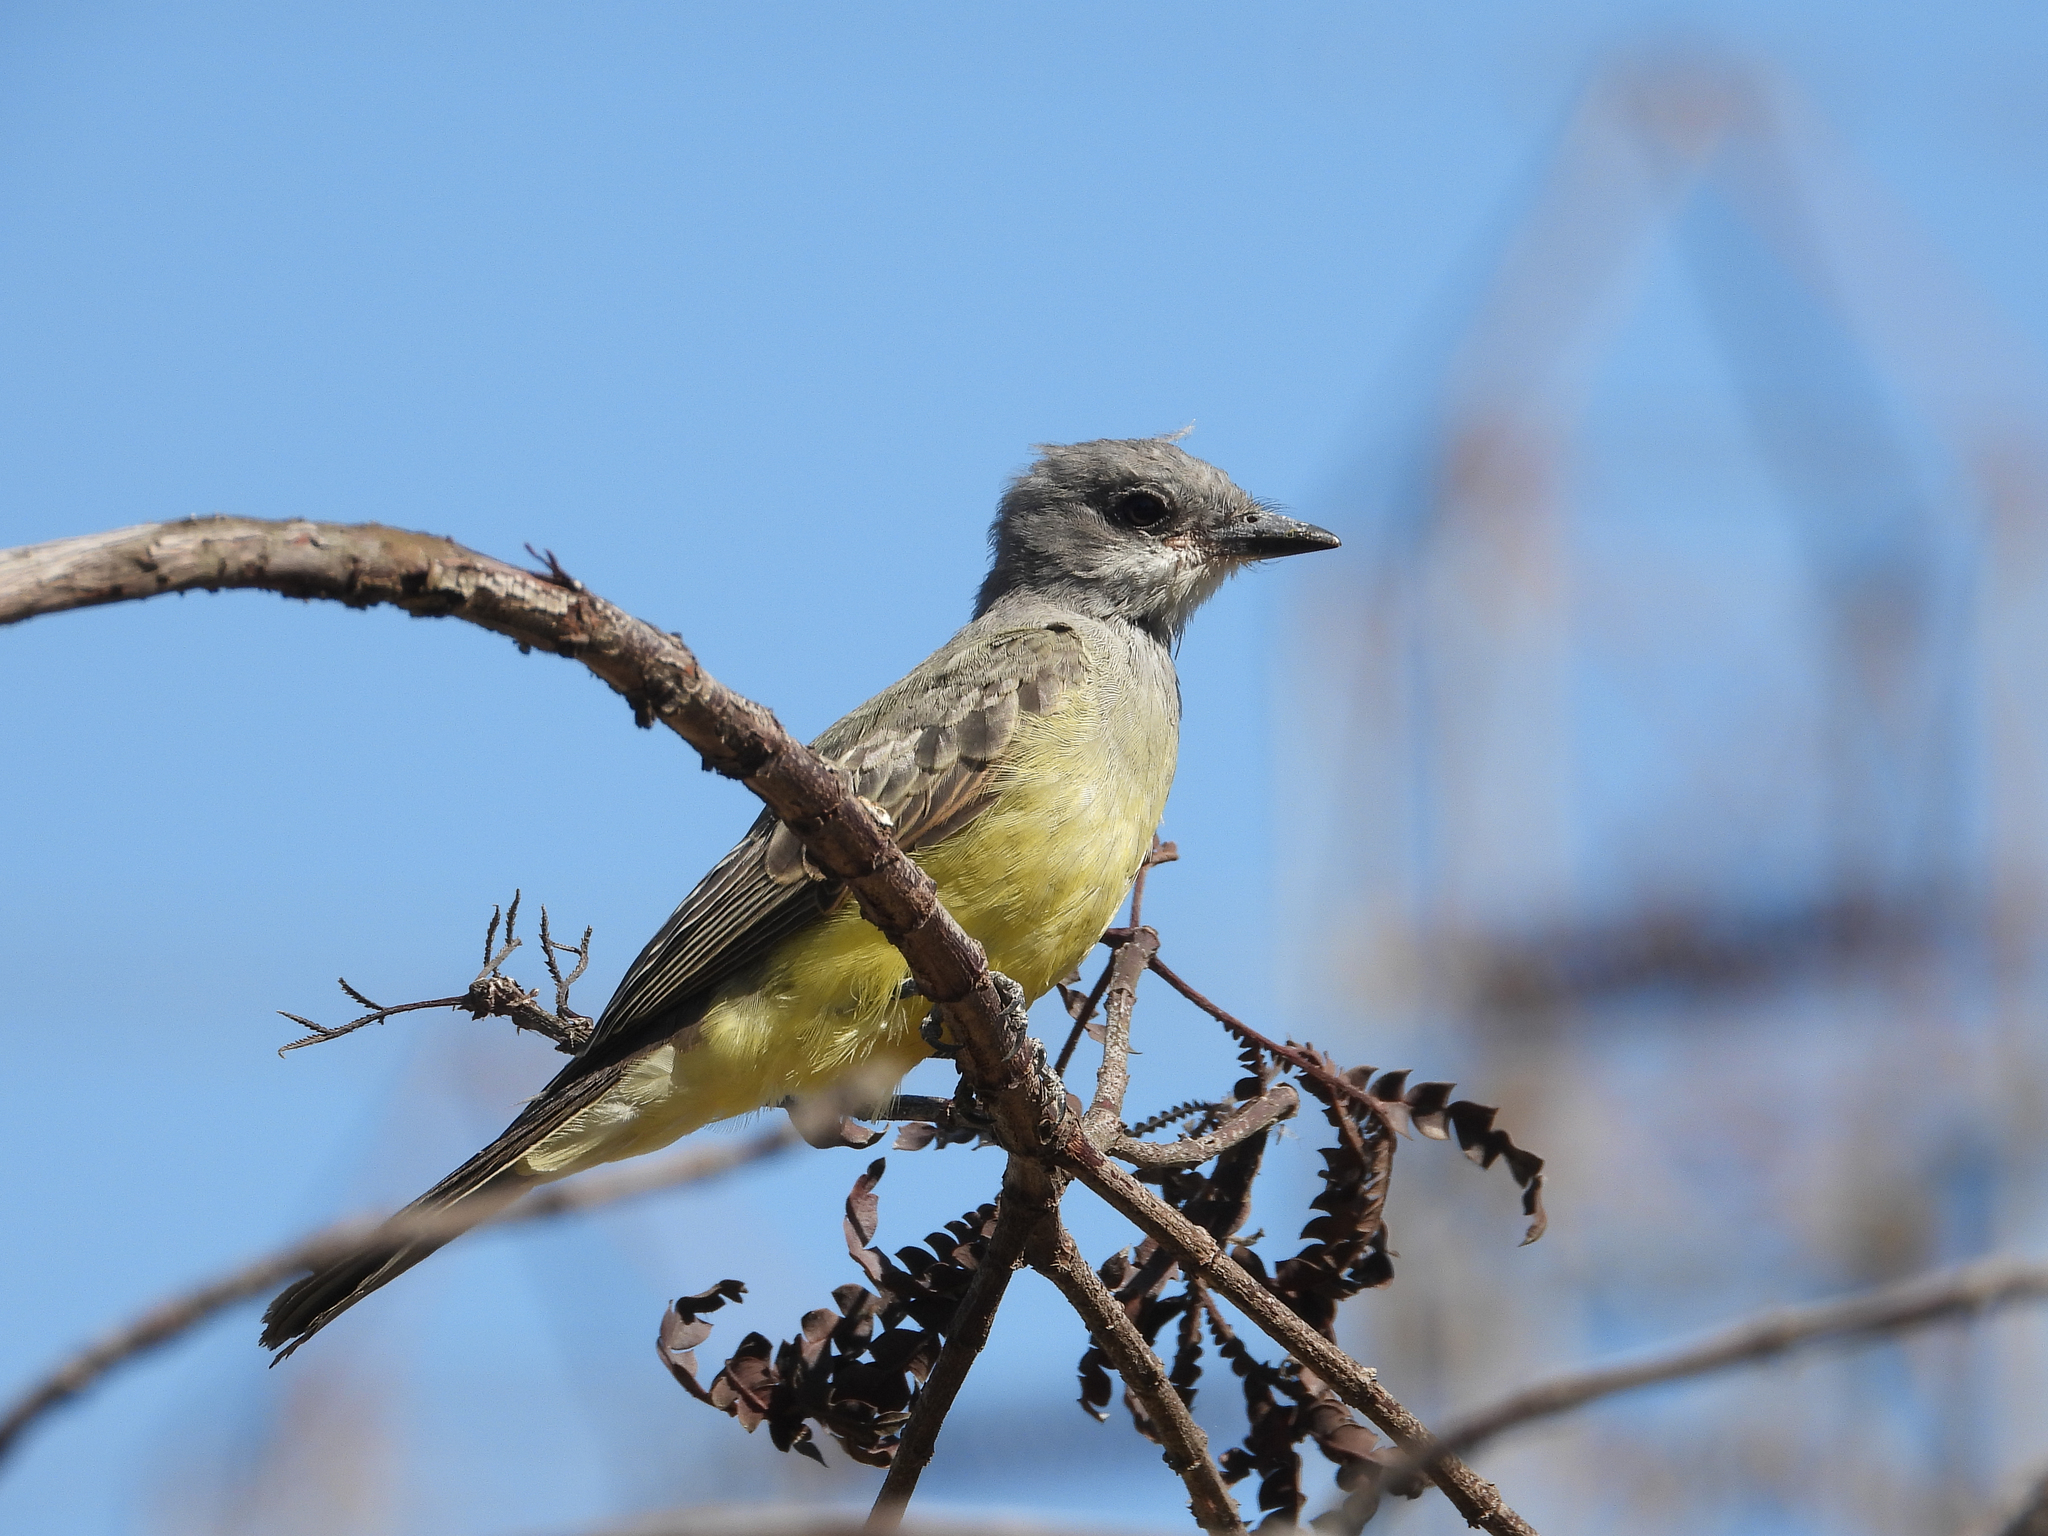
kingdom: Animalia
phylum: Chordata
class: Aves
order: Passeriformes
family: Tyrannidae
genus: Tyrannus
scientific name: Tyrannus vociferans
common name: Cassin's kingbird
